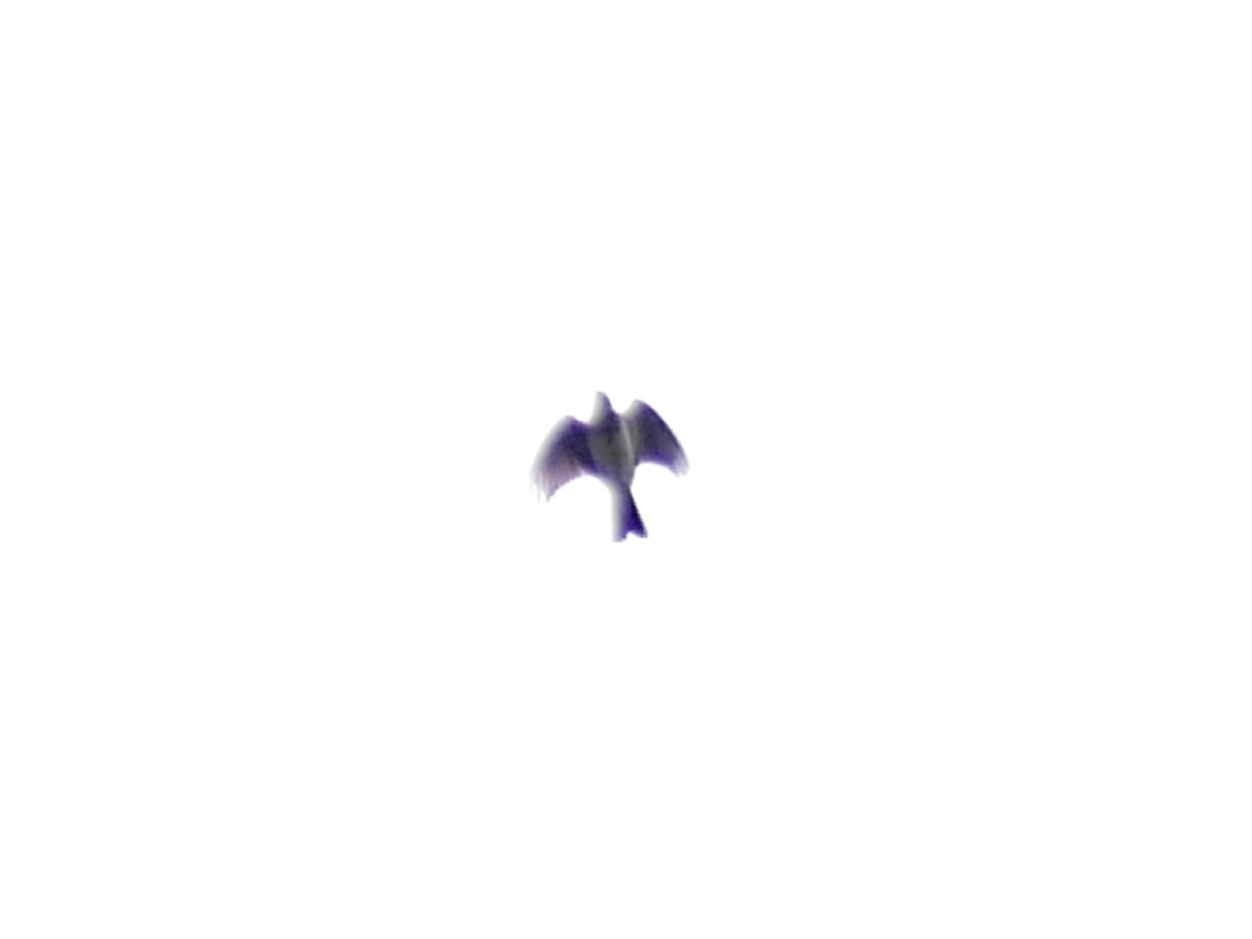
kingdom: Animalia
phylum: Chordata
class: Aves
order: Passeriformes
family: Alaudidae
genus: Alauda
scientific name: Alauda arvensis
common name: Eurasian skylark
